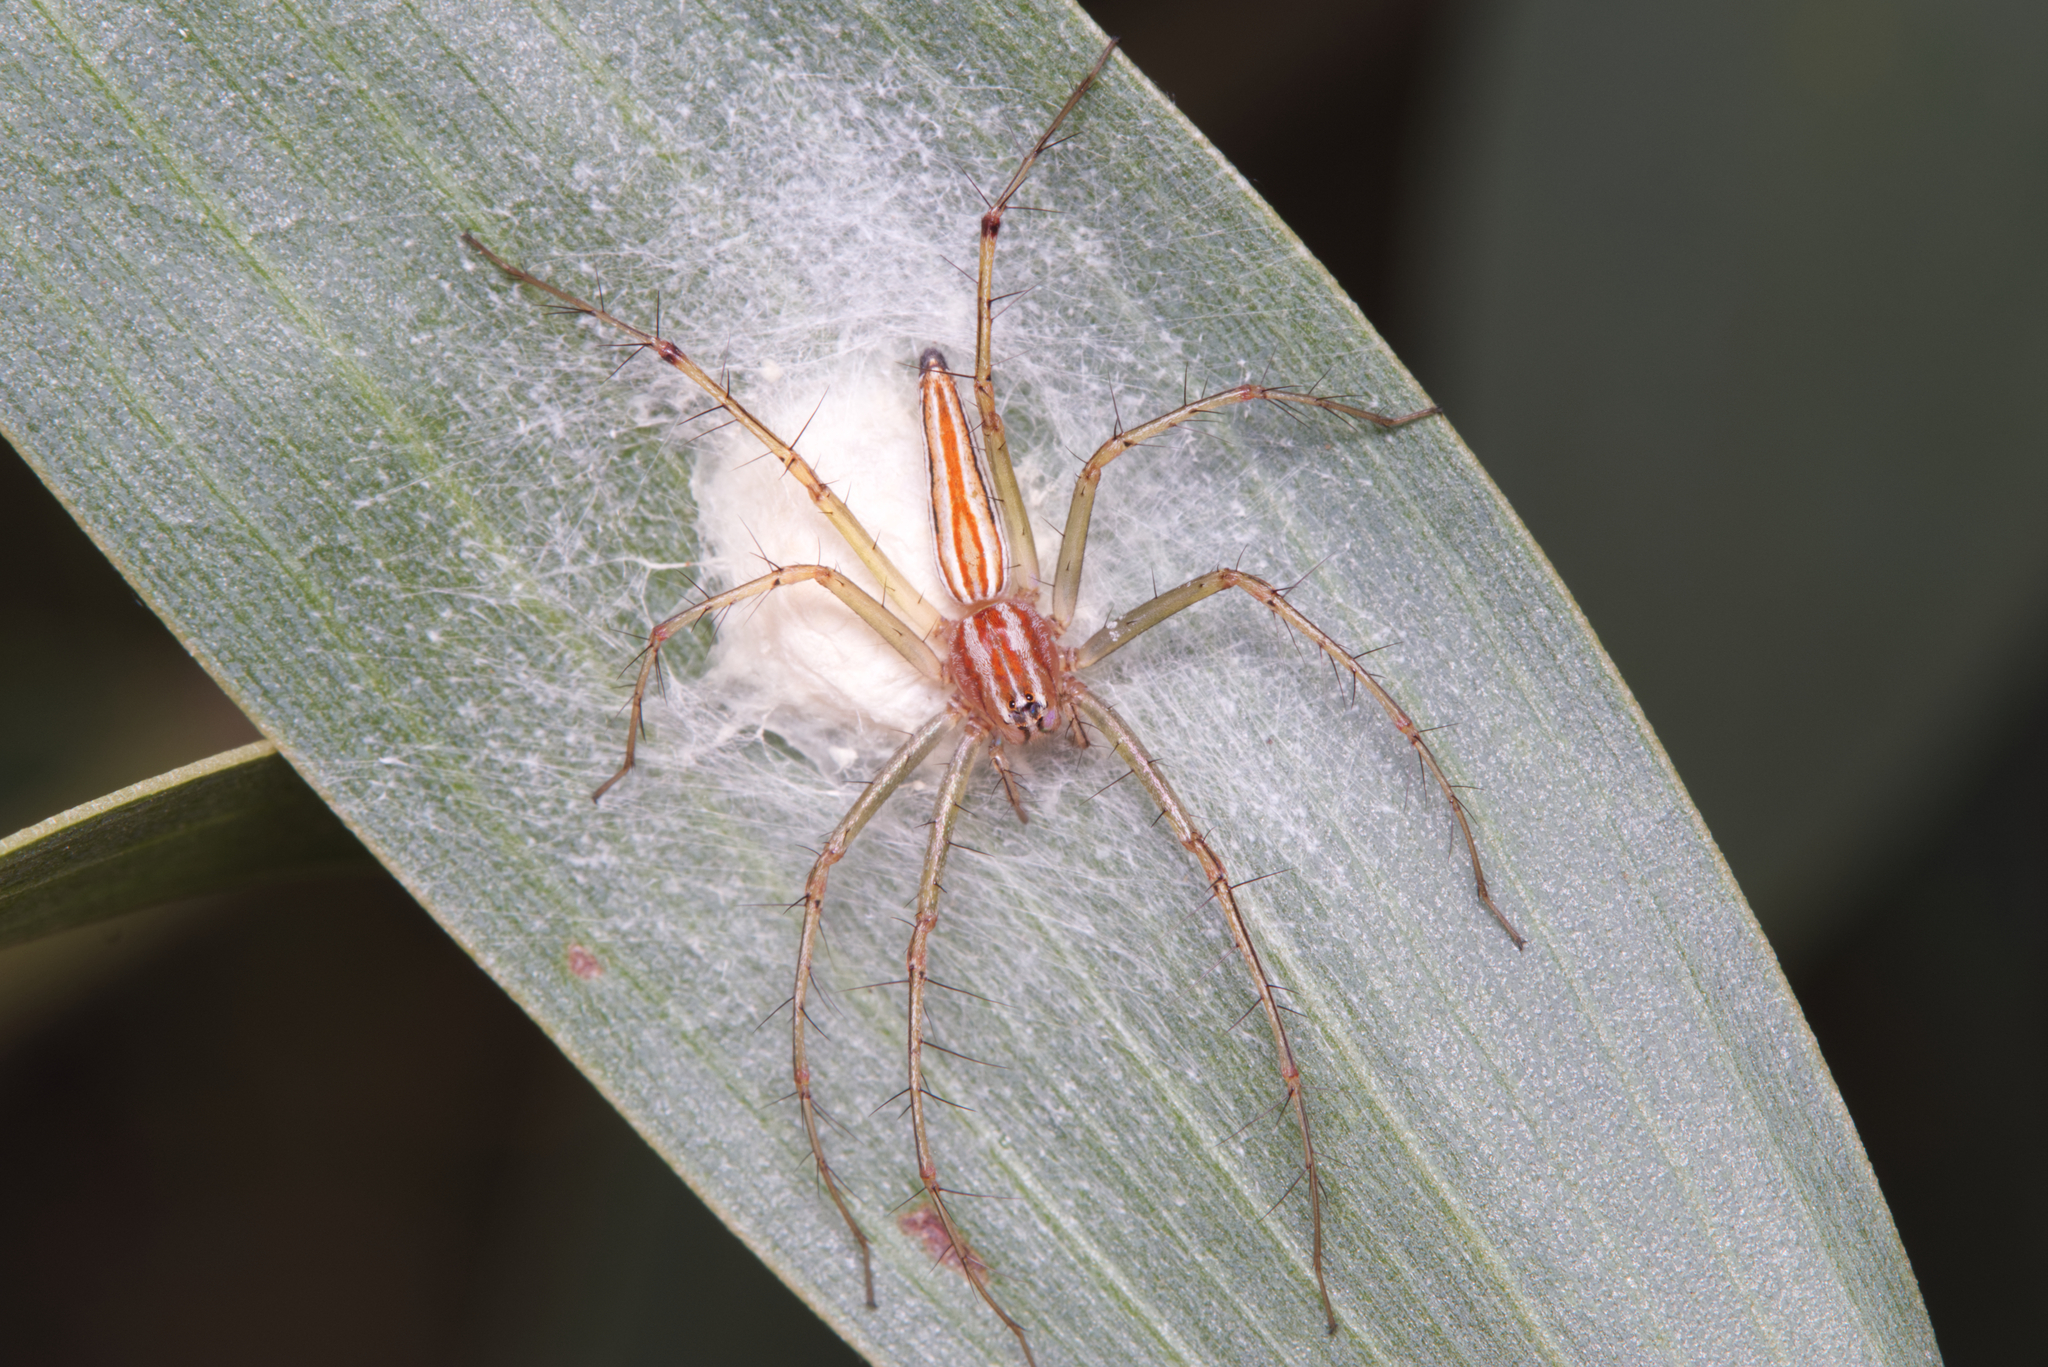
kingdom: Animalia
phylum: Arthropoda
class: Arachnida
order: Araneae
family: Oxyopidae
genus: Oxyopes
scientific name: Oxyopes macilentus
